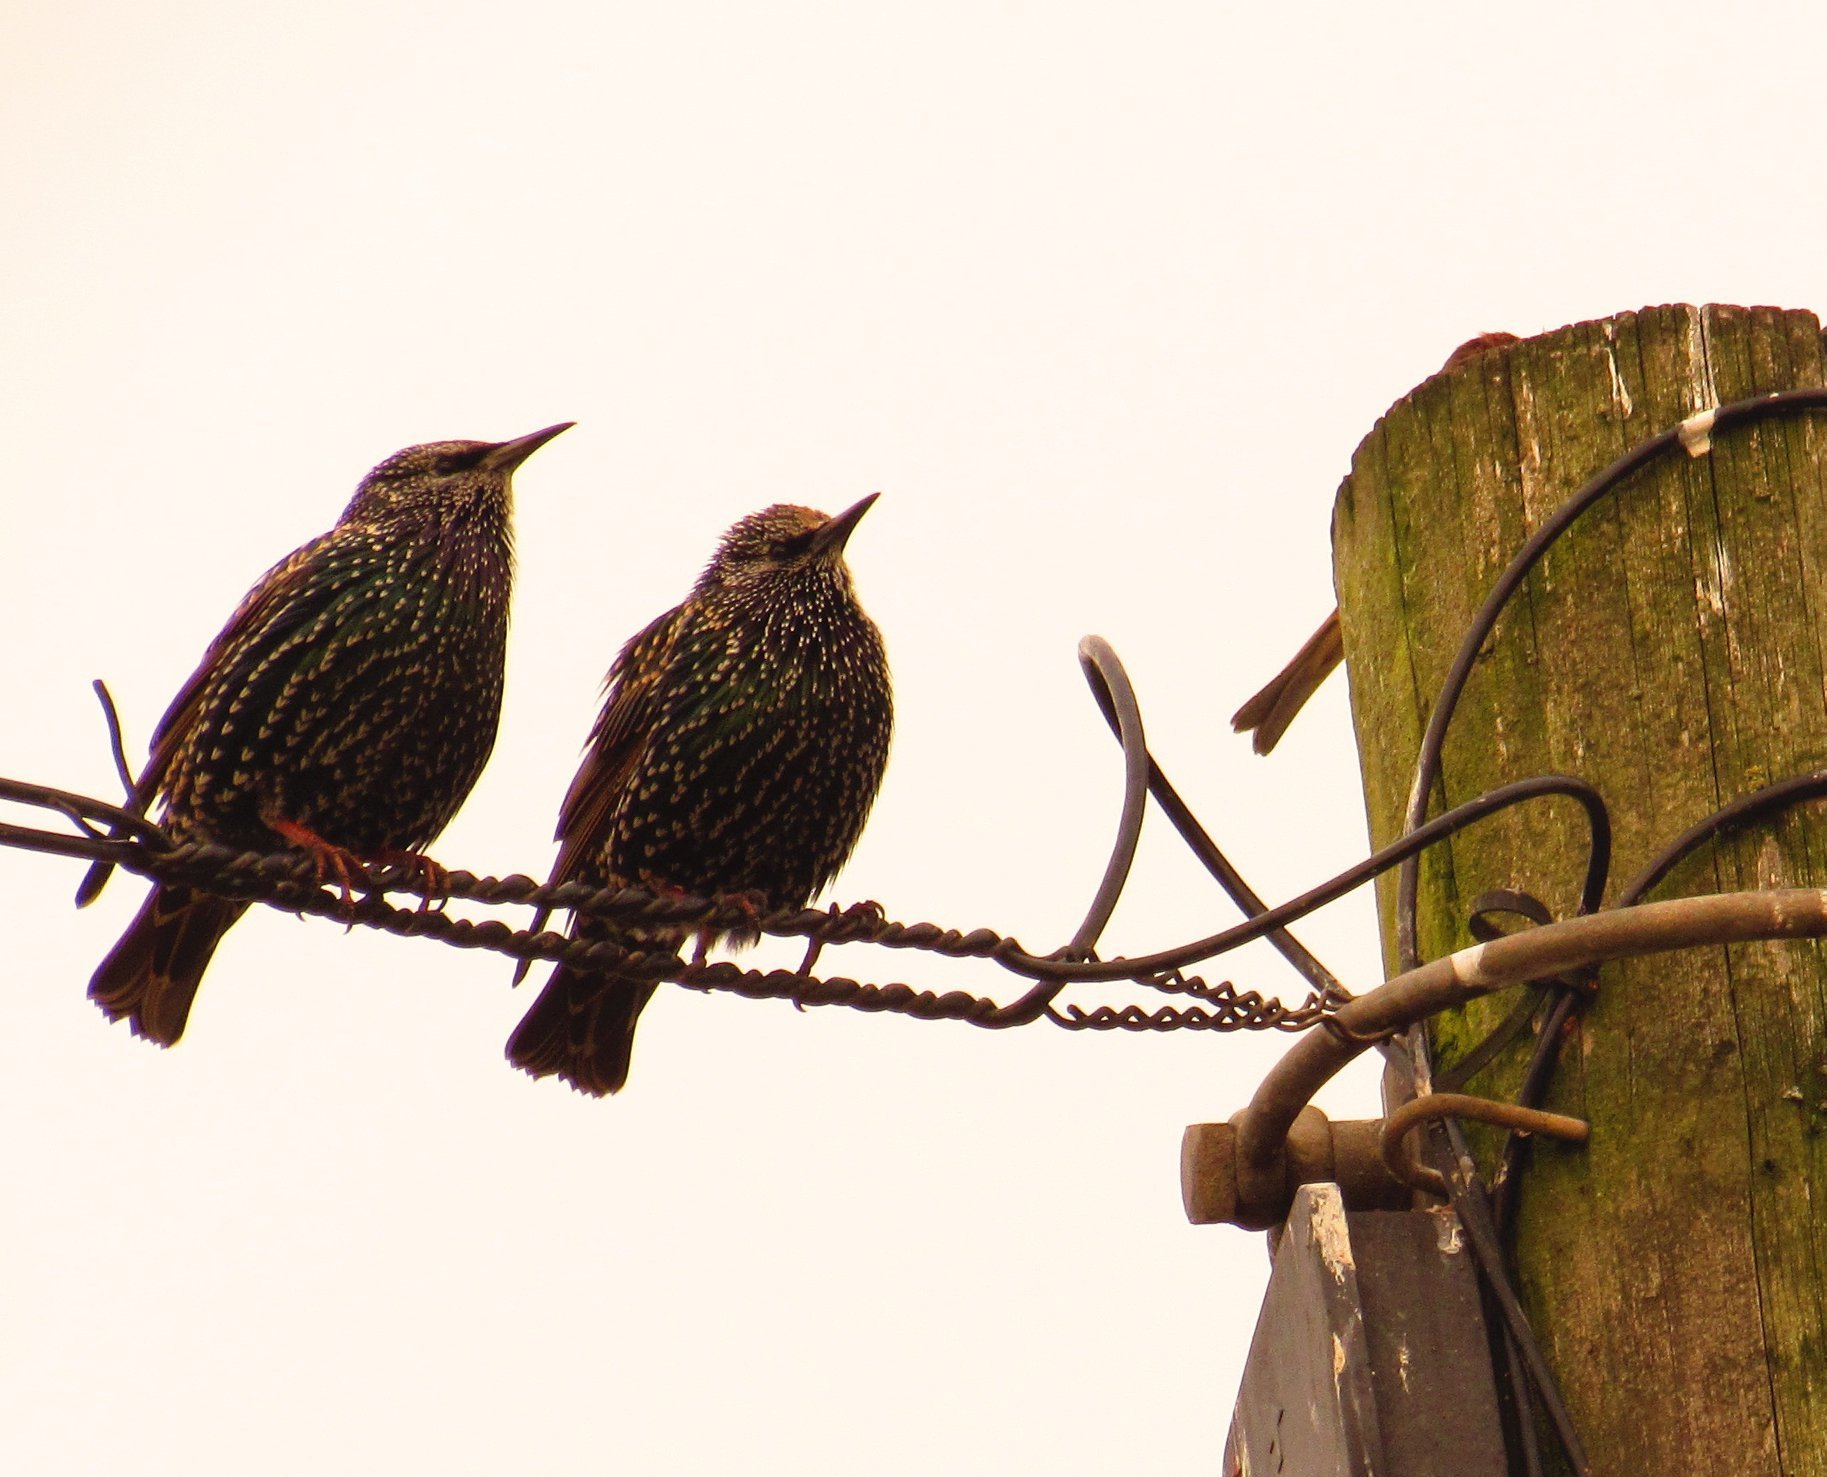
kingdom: Animalia
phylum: Chordata
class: Aves
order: Passeriformes
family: Sturnidae
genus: Sturnus
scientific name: Sturnus vulgaris
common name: Common starling
